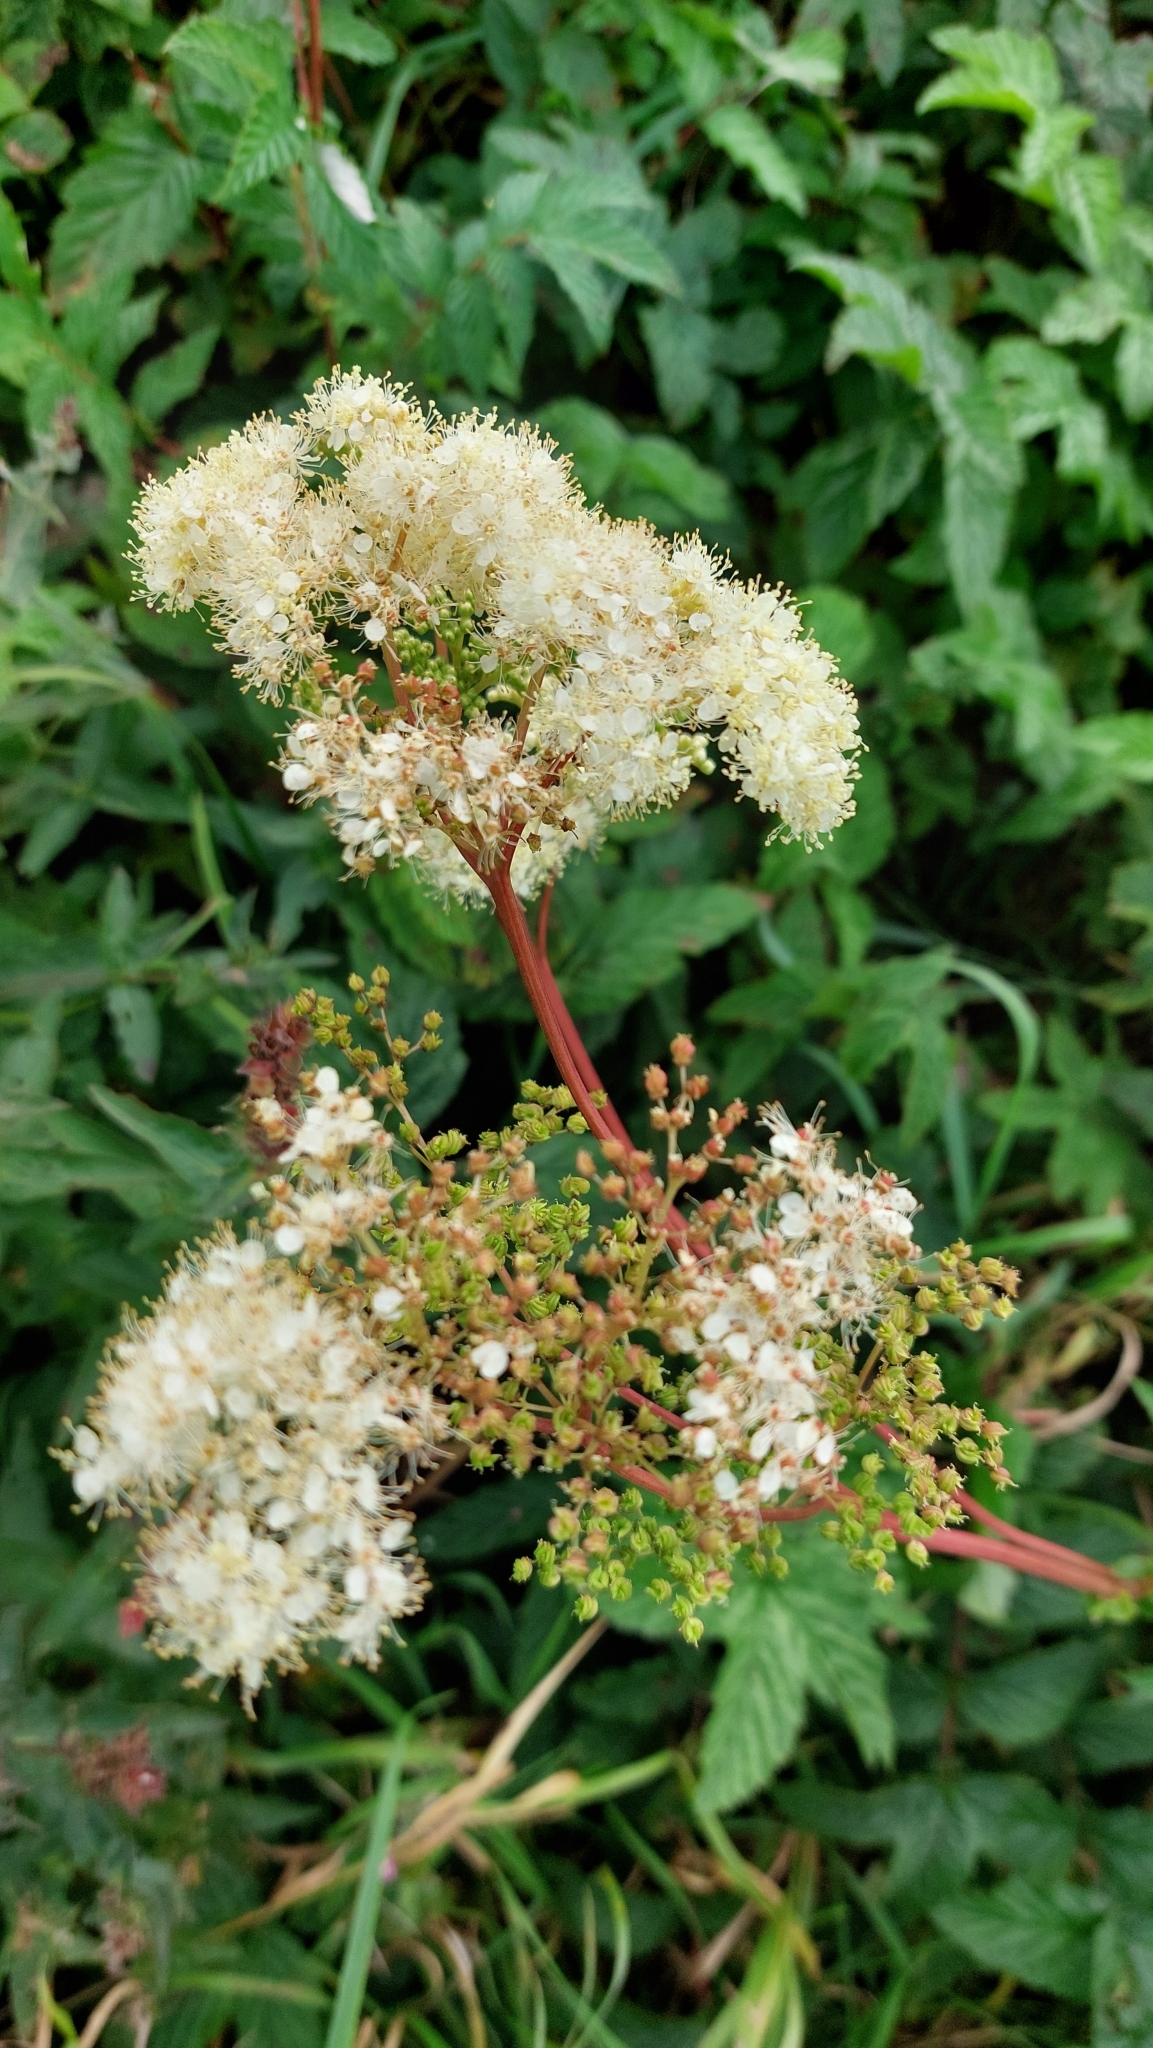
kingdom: Plantae
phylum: Tracheophyta
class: Magnoliopsida
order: Rosales
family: Rosaceae
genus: Filipendula
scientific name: Filipendula ulmaria
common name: Meadowsweet
